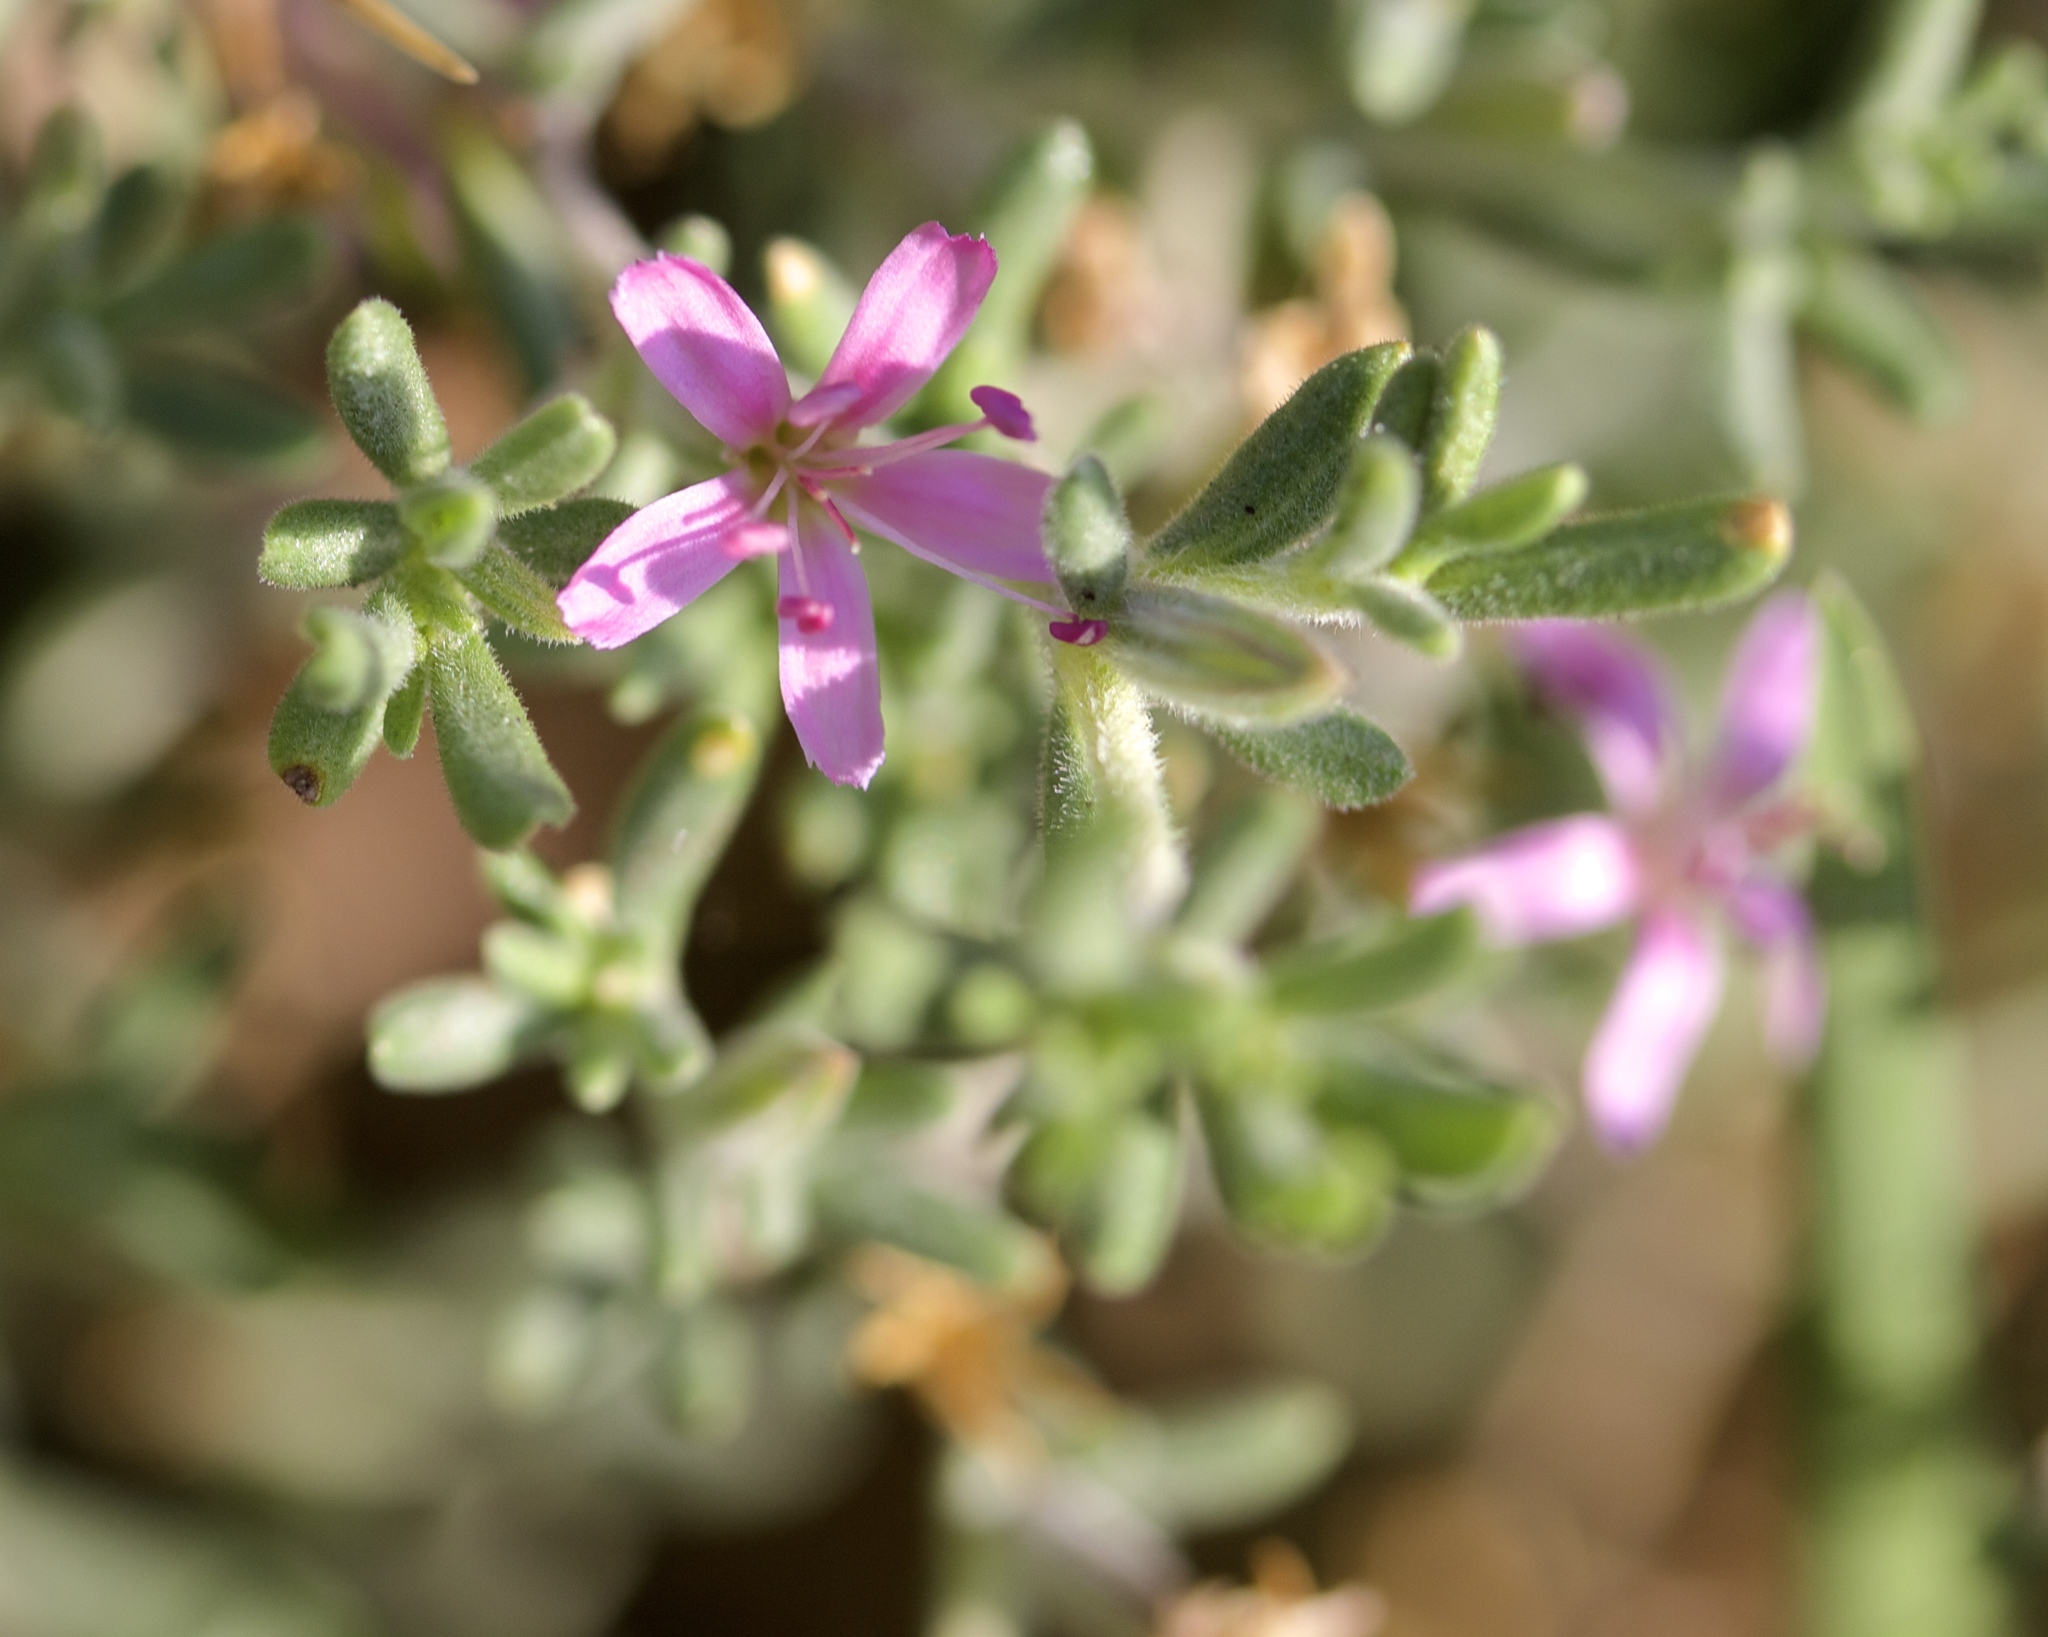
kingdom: Plantae
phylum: Tracheophyta
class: Magnoliopsida
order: Caryophyllales
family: Frankeniaceae
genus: Frankenia
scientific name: Frankenia salina
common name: Alkali seaheath
